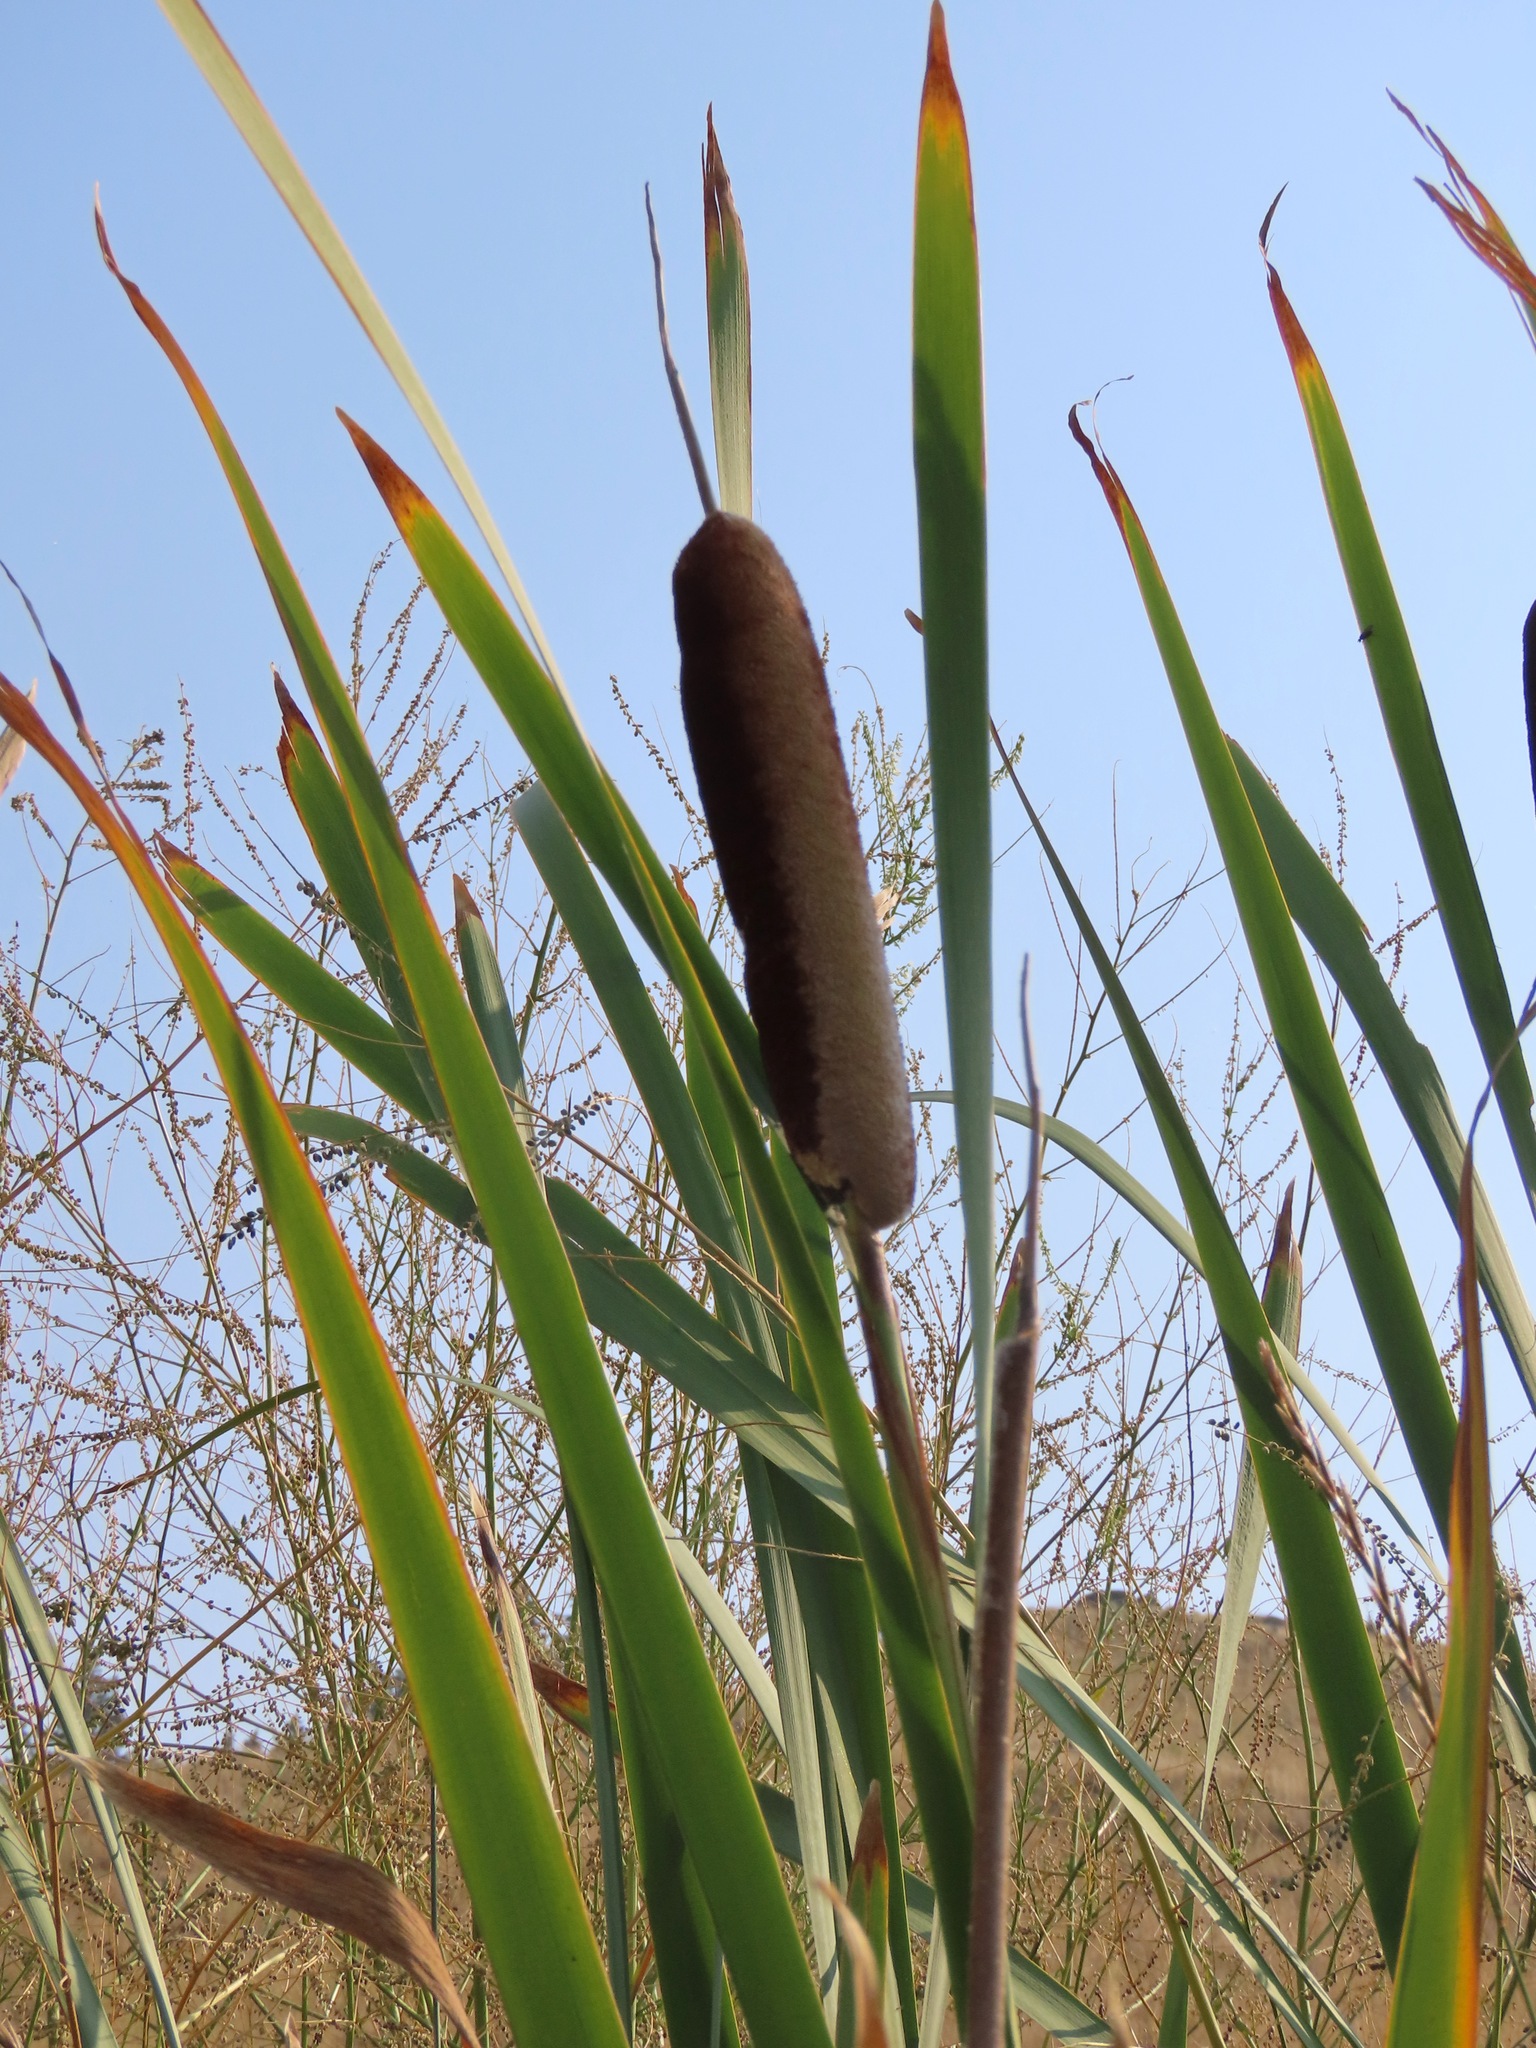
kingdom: Plantae
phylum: Tracheophyta
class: Liliopsida
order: Poales
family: Typhaceae
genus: Typha
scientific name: Typha latifolia
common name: Broadleaf cattail
